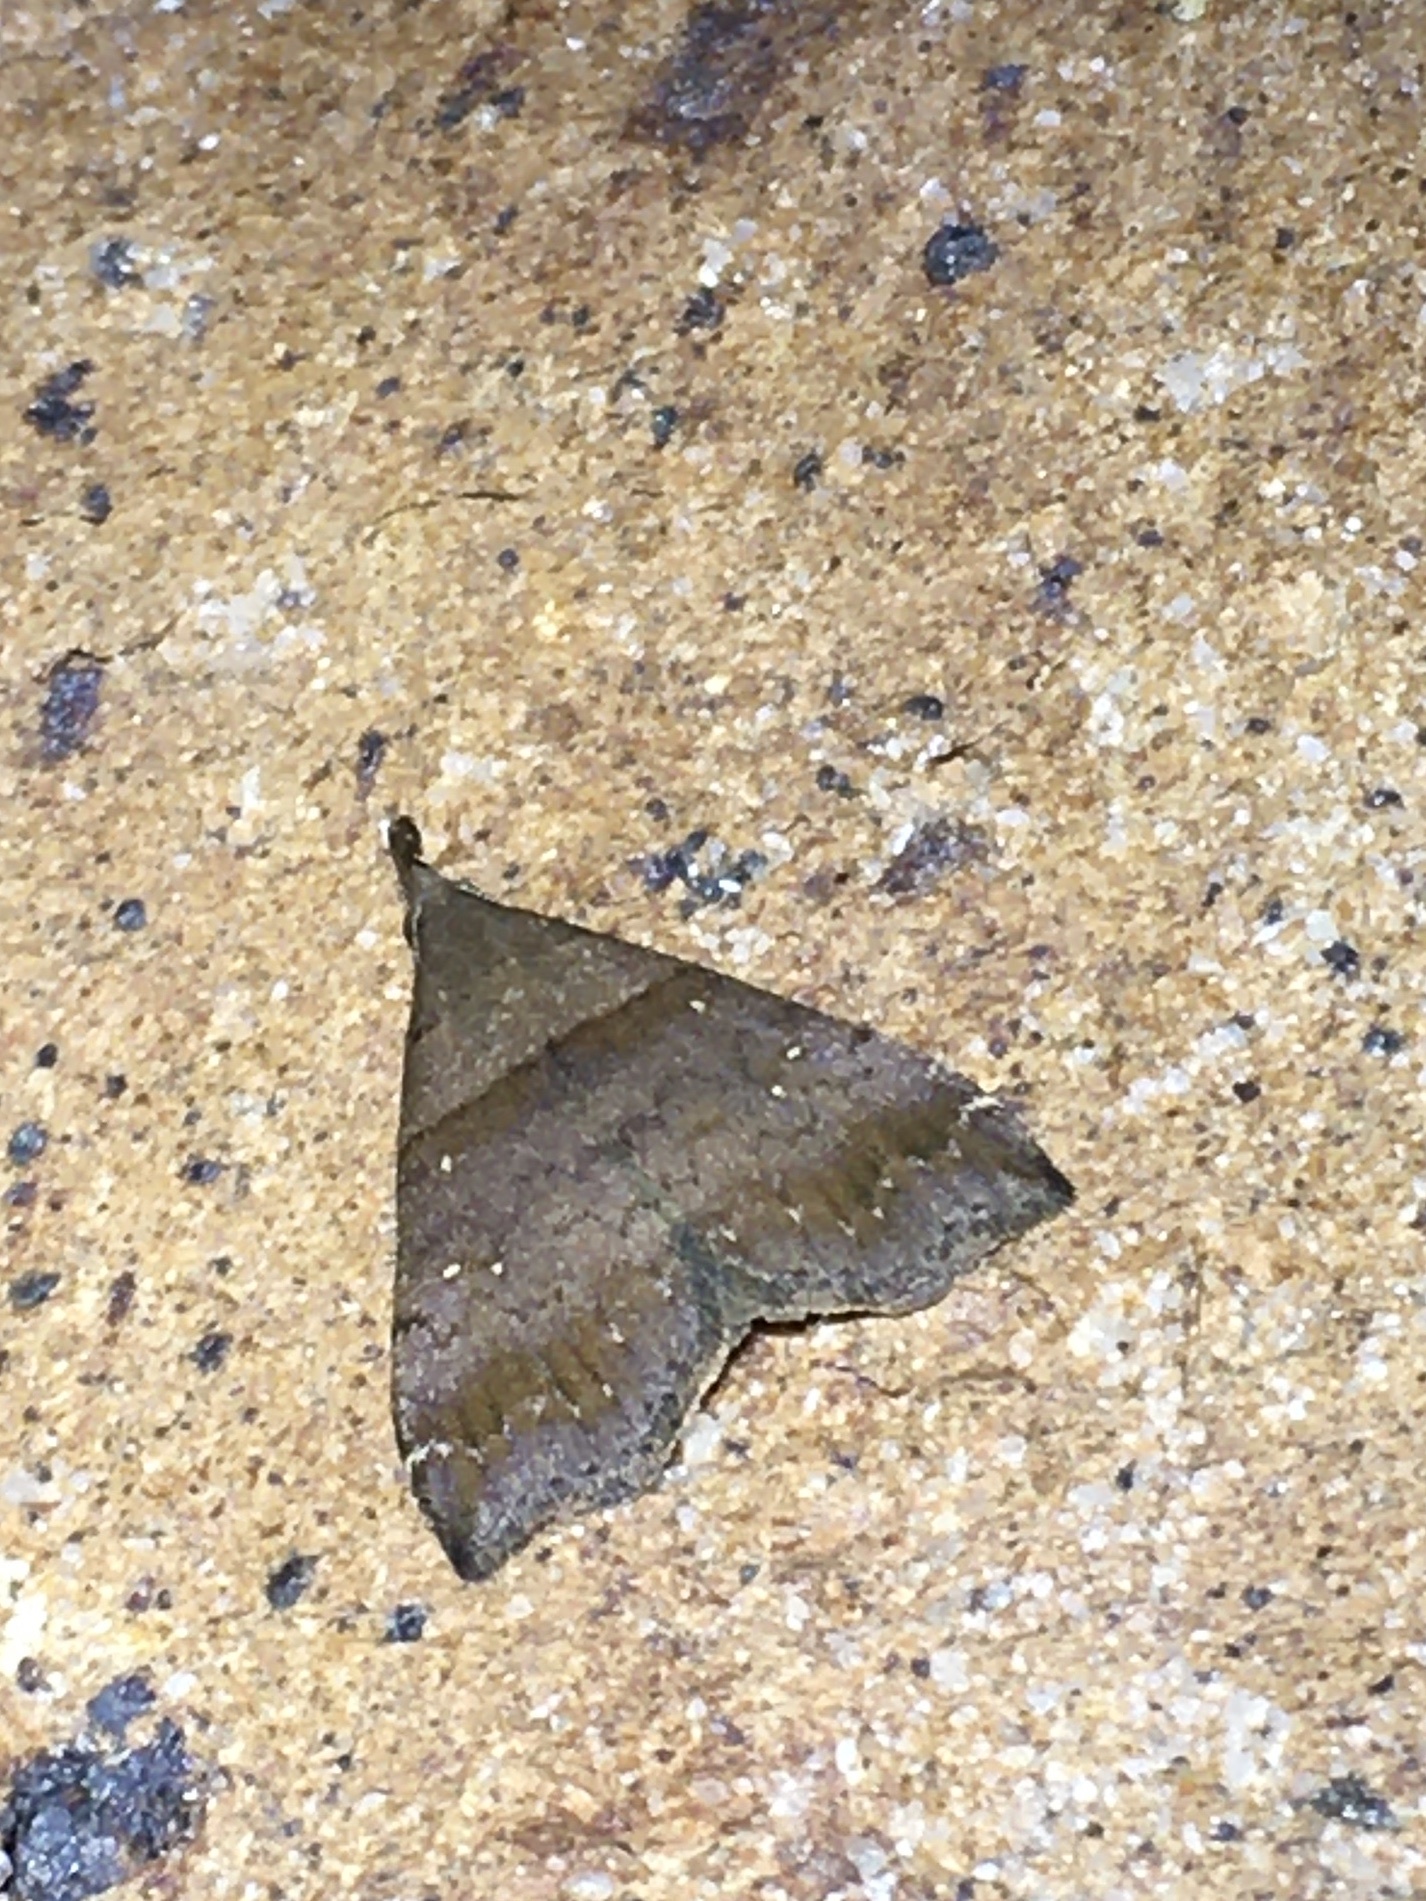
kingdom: Animalia
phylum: Arthropoda
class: Insecta
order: Lepidoptera
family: Erebidae
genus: Lascoria
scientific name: Lascoria ambigualis
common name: Ambiguous moth
